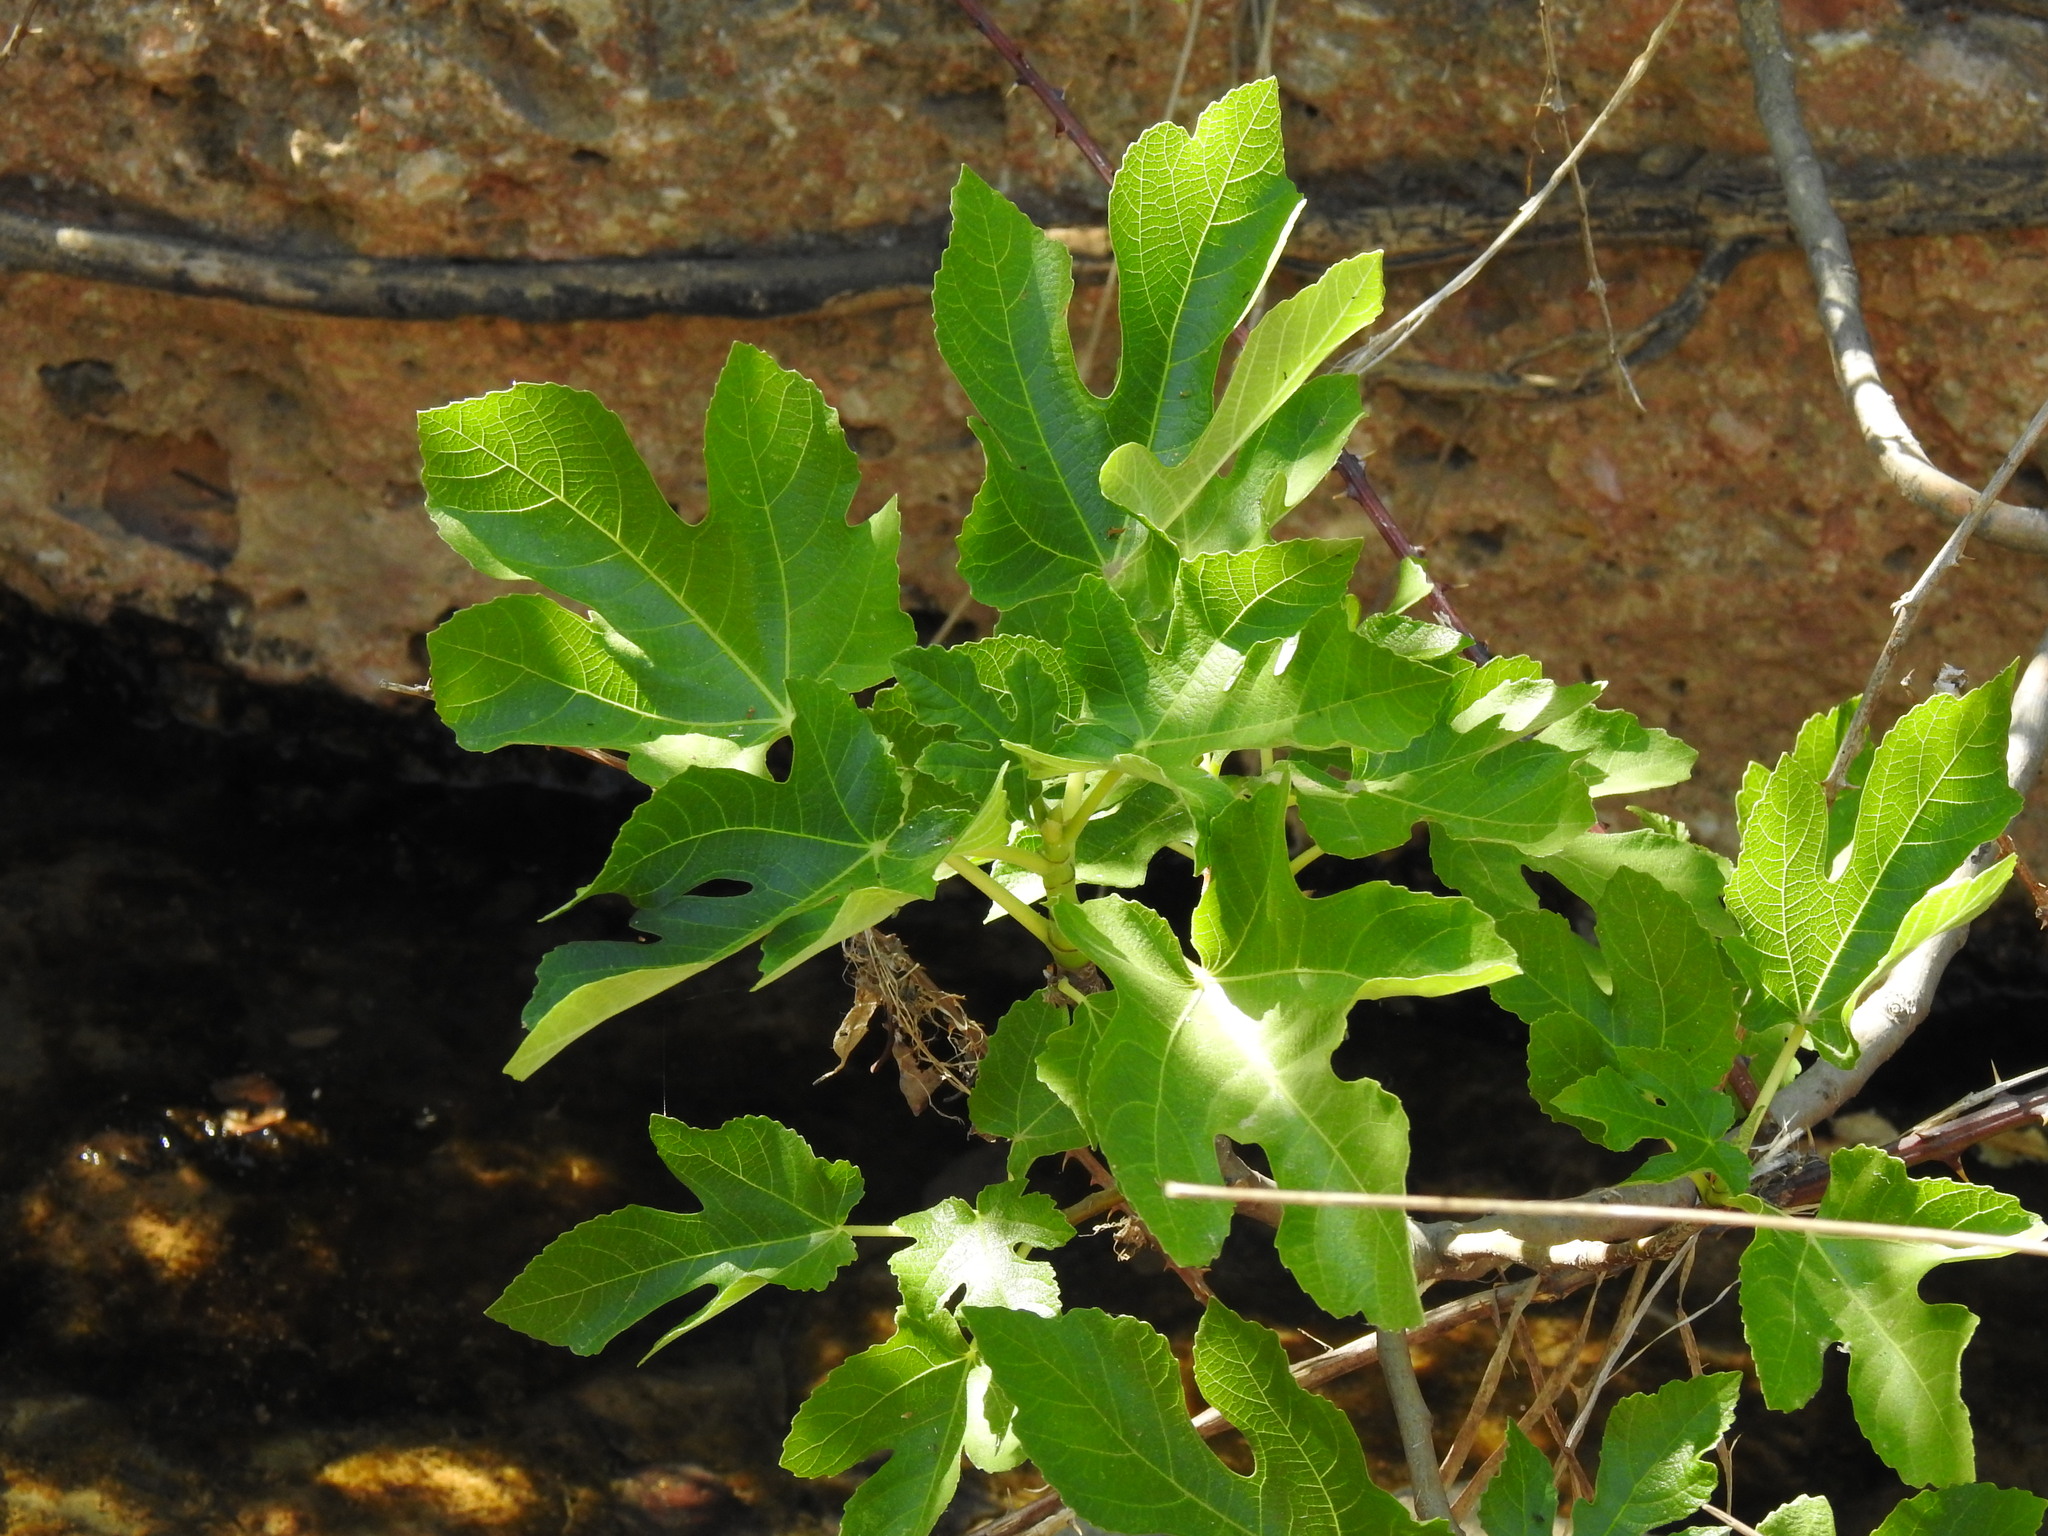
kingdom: Plantae
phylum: Tracheophyta
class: Magnoliopsida
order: Rosales
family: Moraceae
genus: Ficus
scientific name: Ficus carica
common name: Fig
